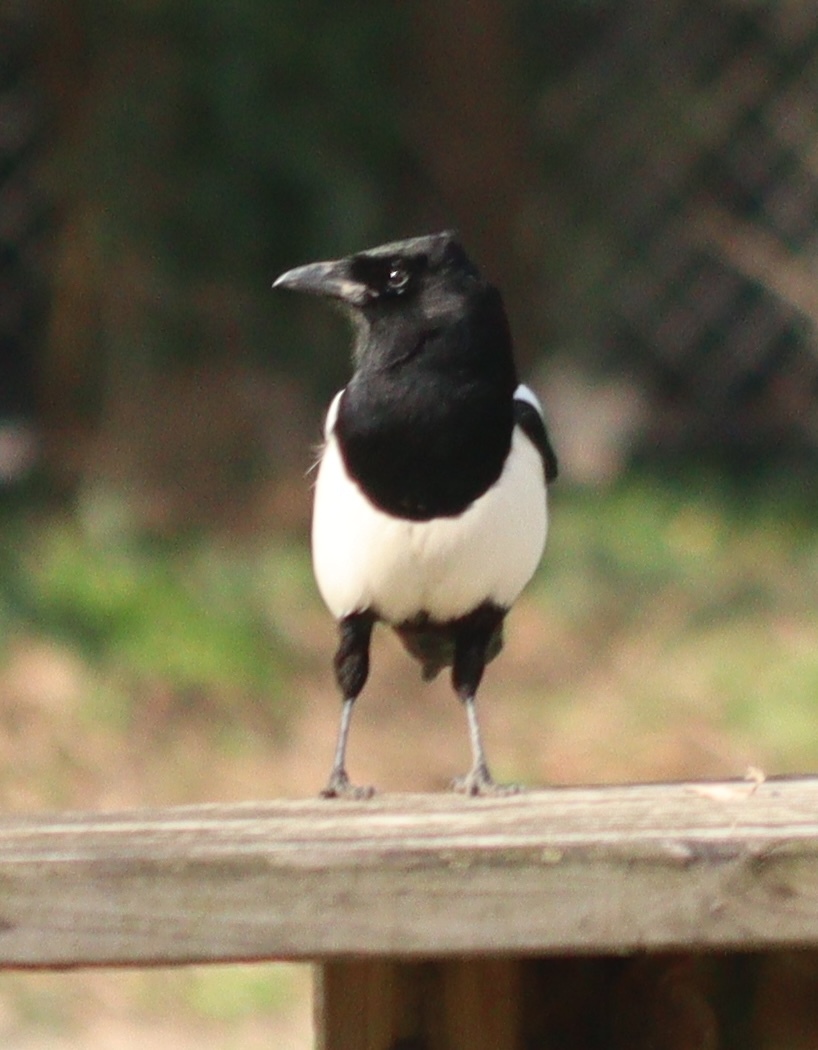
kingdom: Animalia
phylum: Chordata
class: Aves
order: Passeriformes
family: Corvidae
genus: Pica
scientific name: Pica pica
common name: Eurasian magpie
